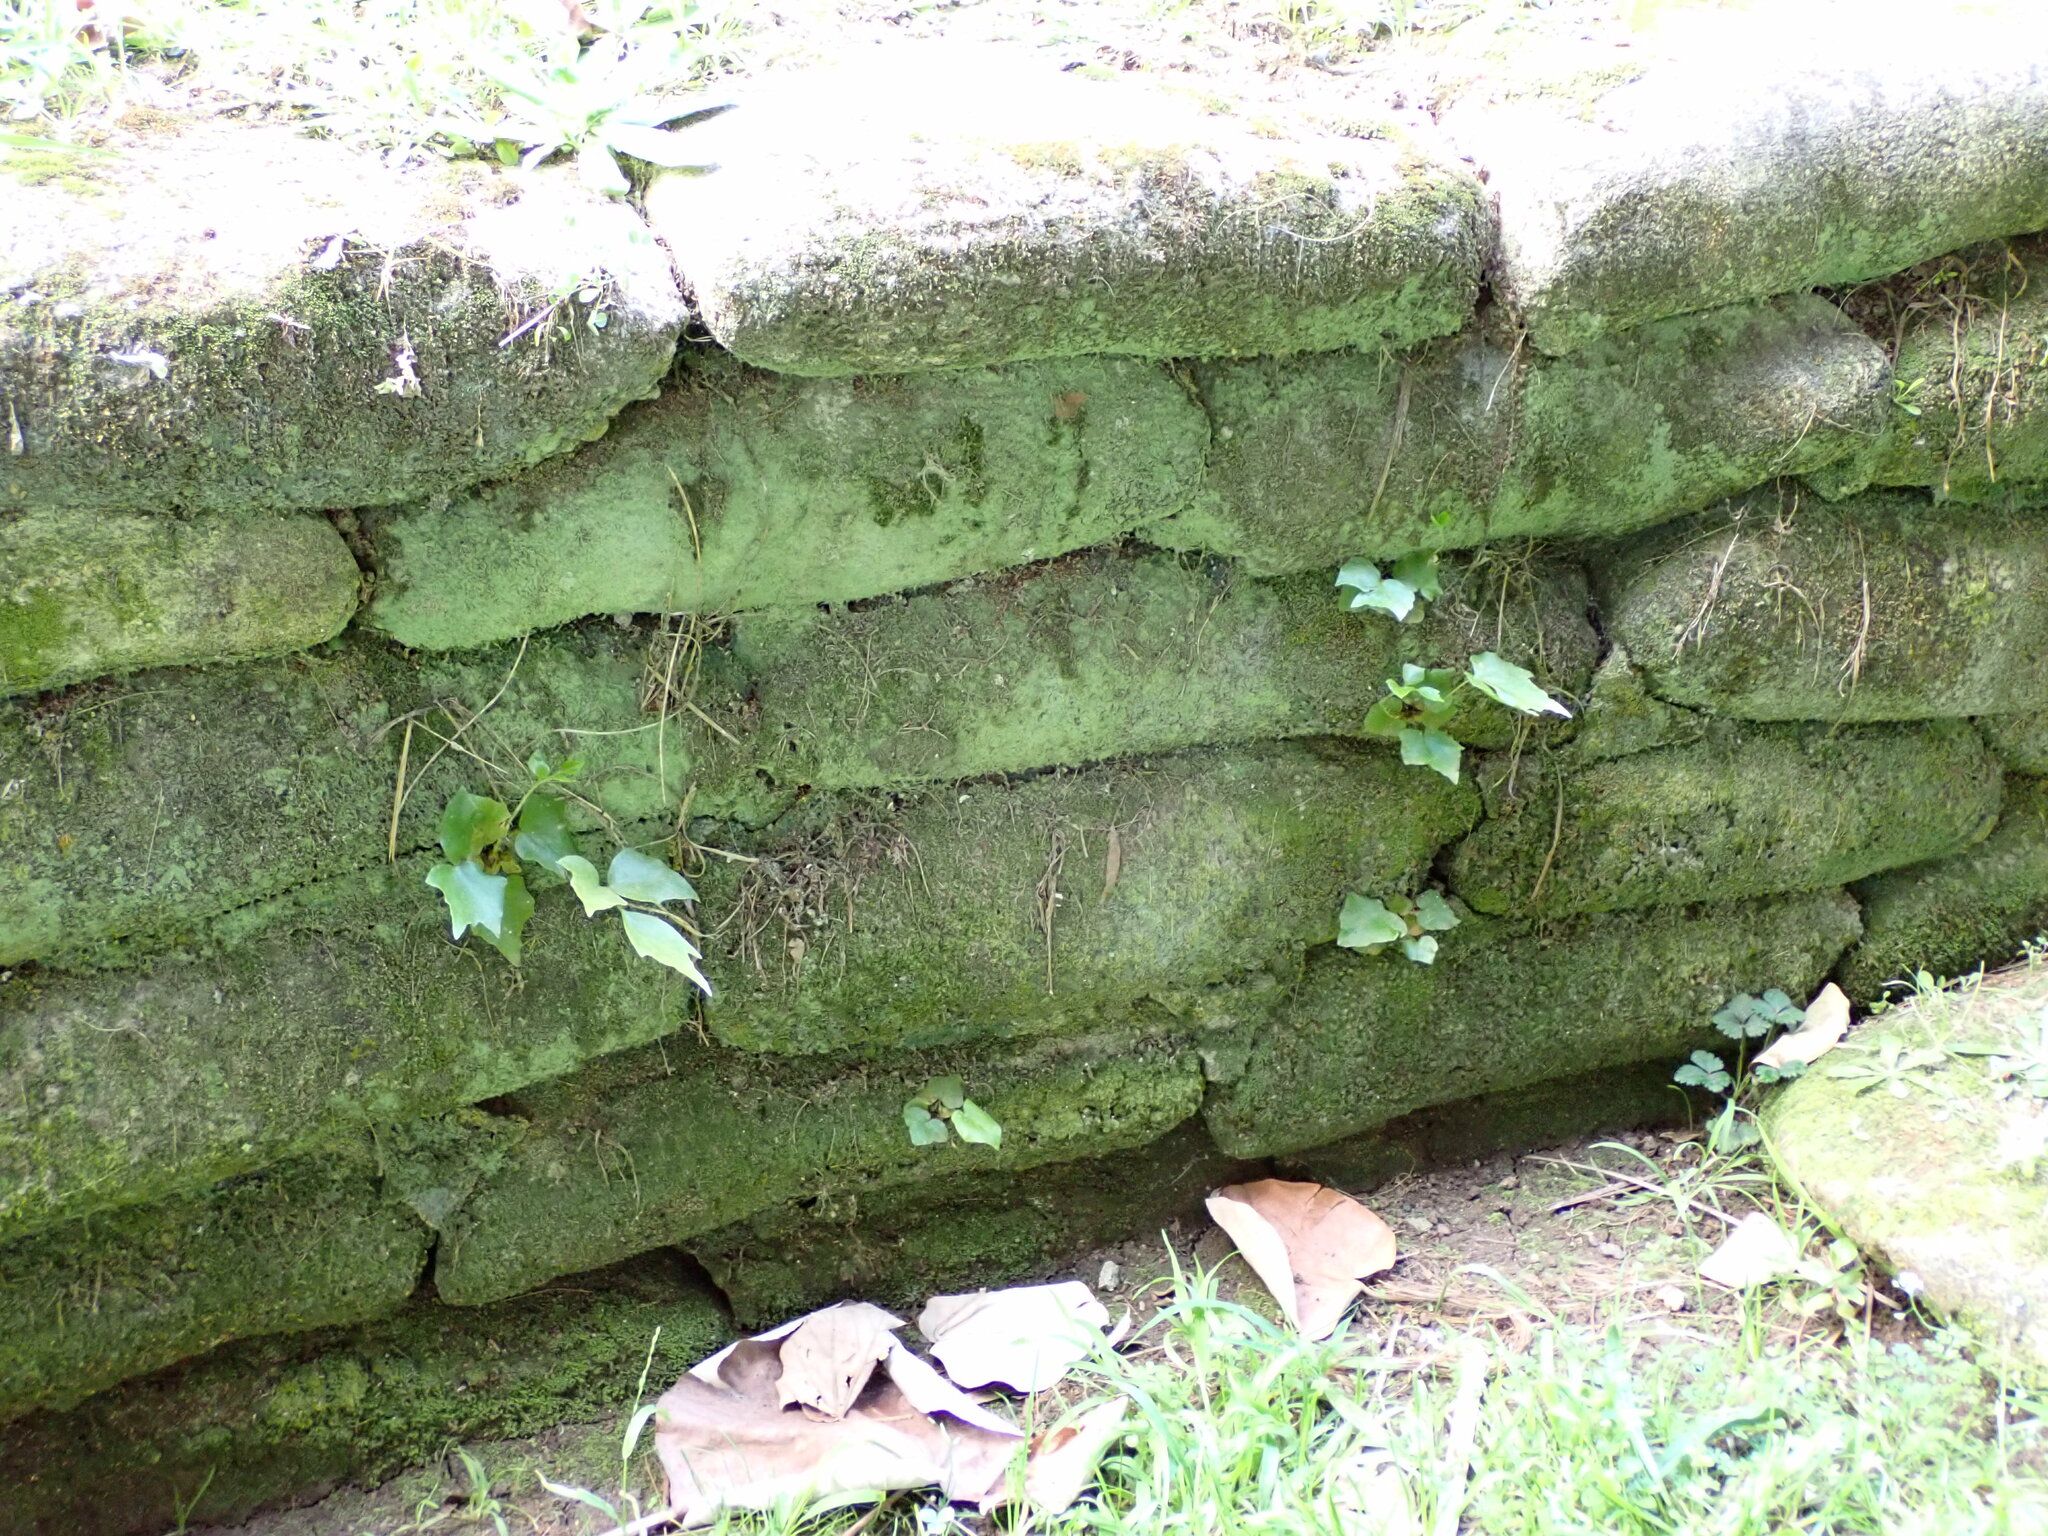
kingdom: Plantae
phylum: Tracheophyta
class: Polypodiopsida
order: Polypodiales
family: Dryopteridaceae
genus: Cyrtomium
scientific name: Cyrtomium falcatum
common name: House holly-fern
